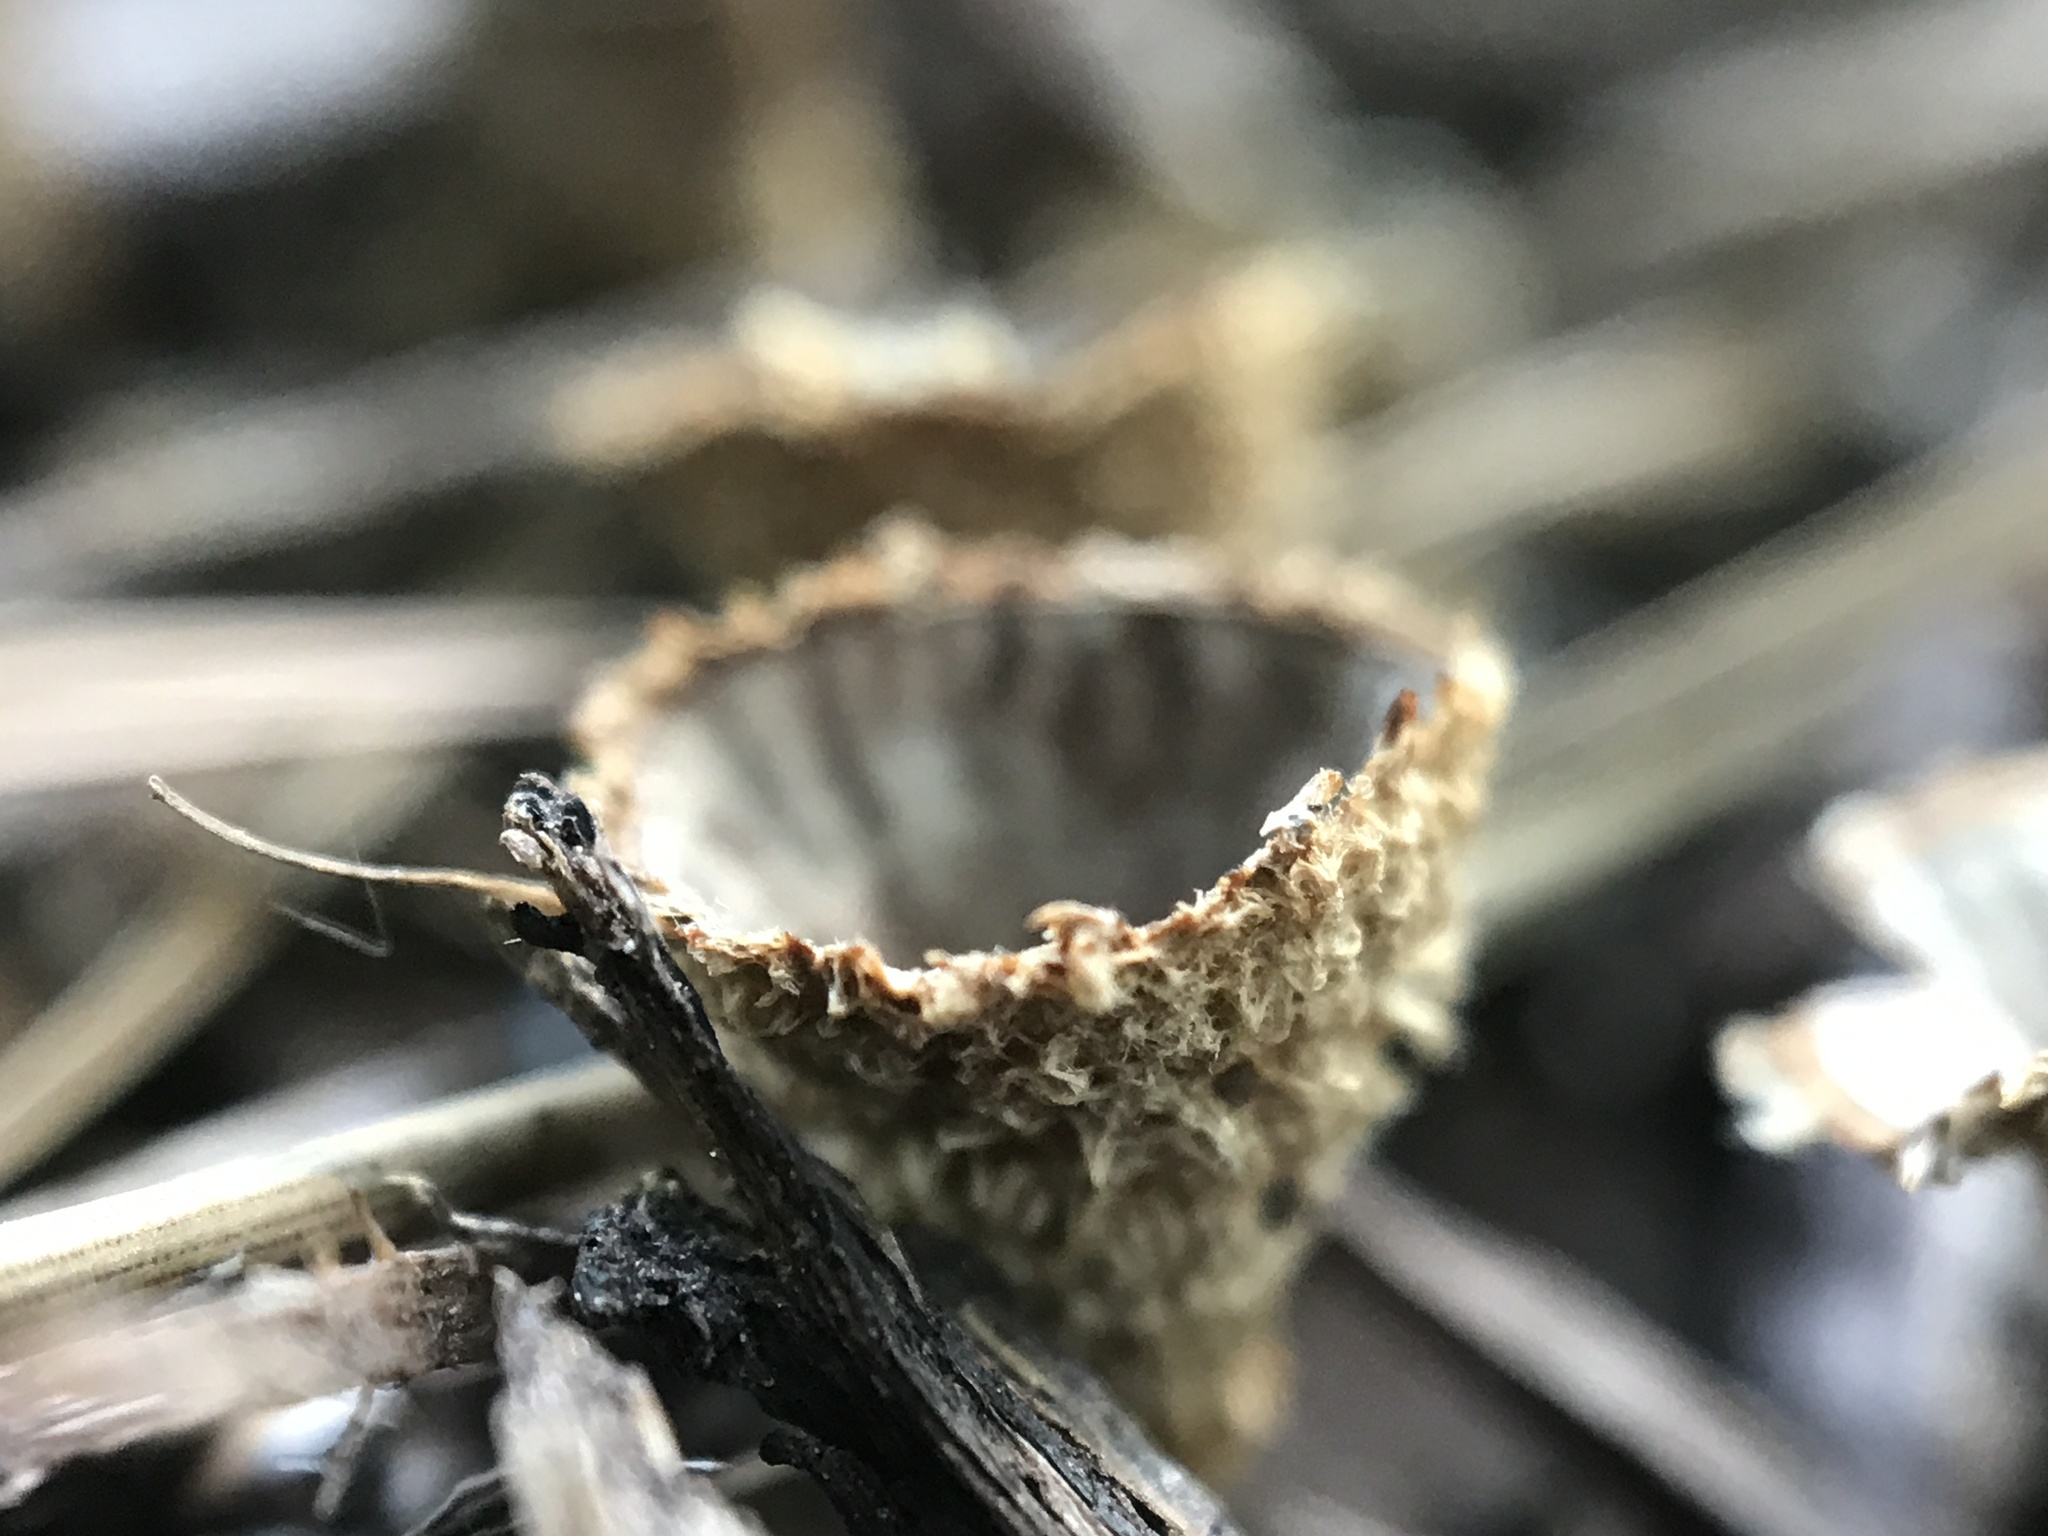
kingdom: Fungi
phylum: Basidiomycota
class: Agaricomycetes
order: Agaricales
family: Agaricaceae
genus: Cyathus
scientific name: Cyathus striatus
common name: Fluted bird's nest
